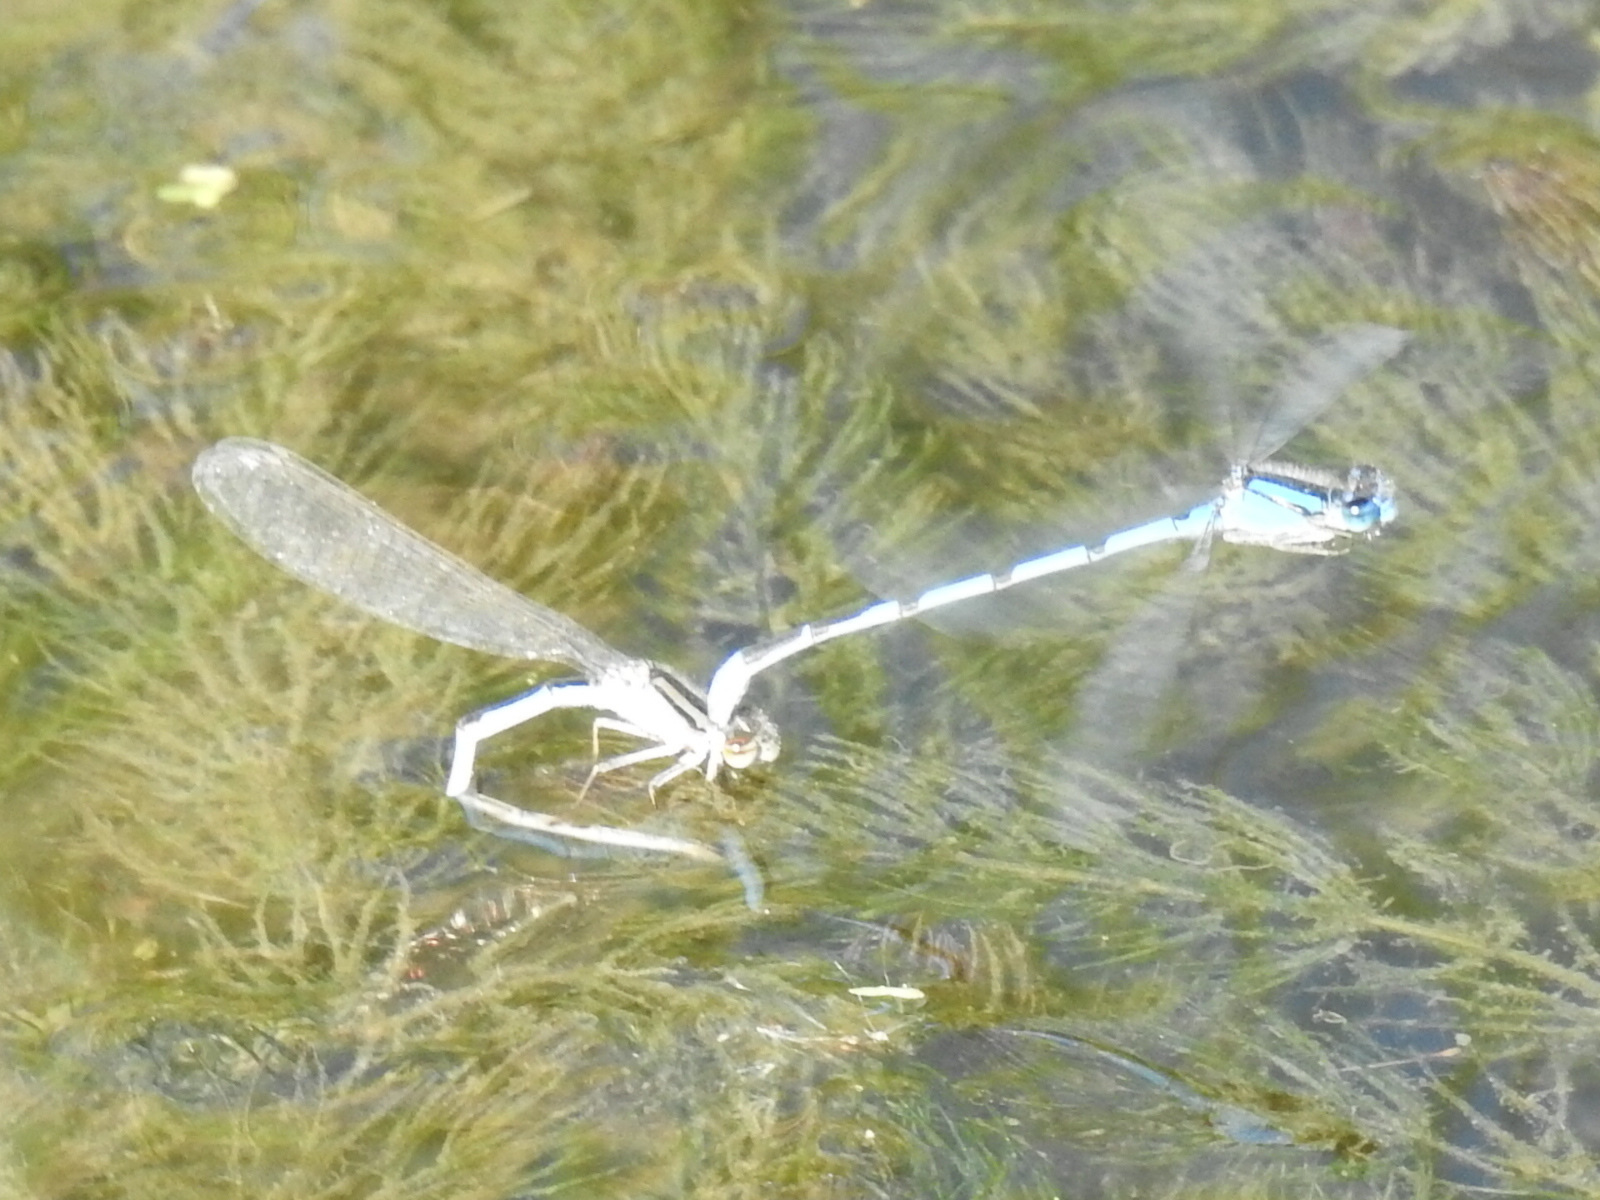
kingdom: Animalia
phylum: Arthropoda
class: Insecta
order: Odonata
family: Coenagrionidae
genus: Enallagma
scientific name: Enallagma civile
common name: Damselfly
